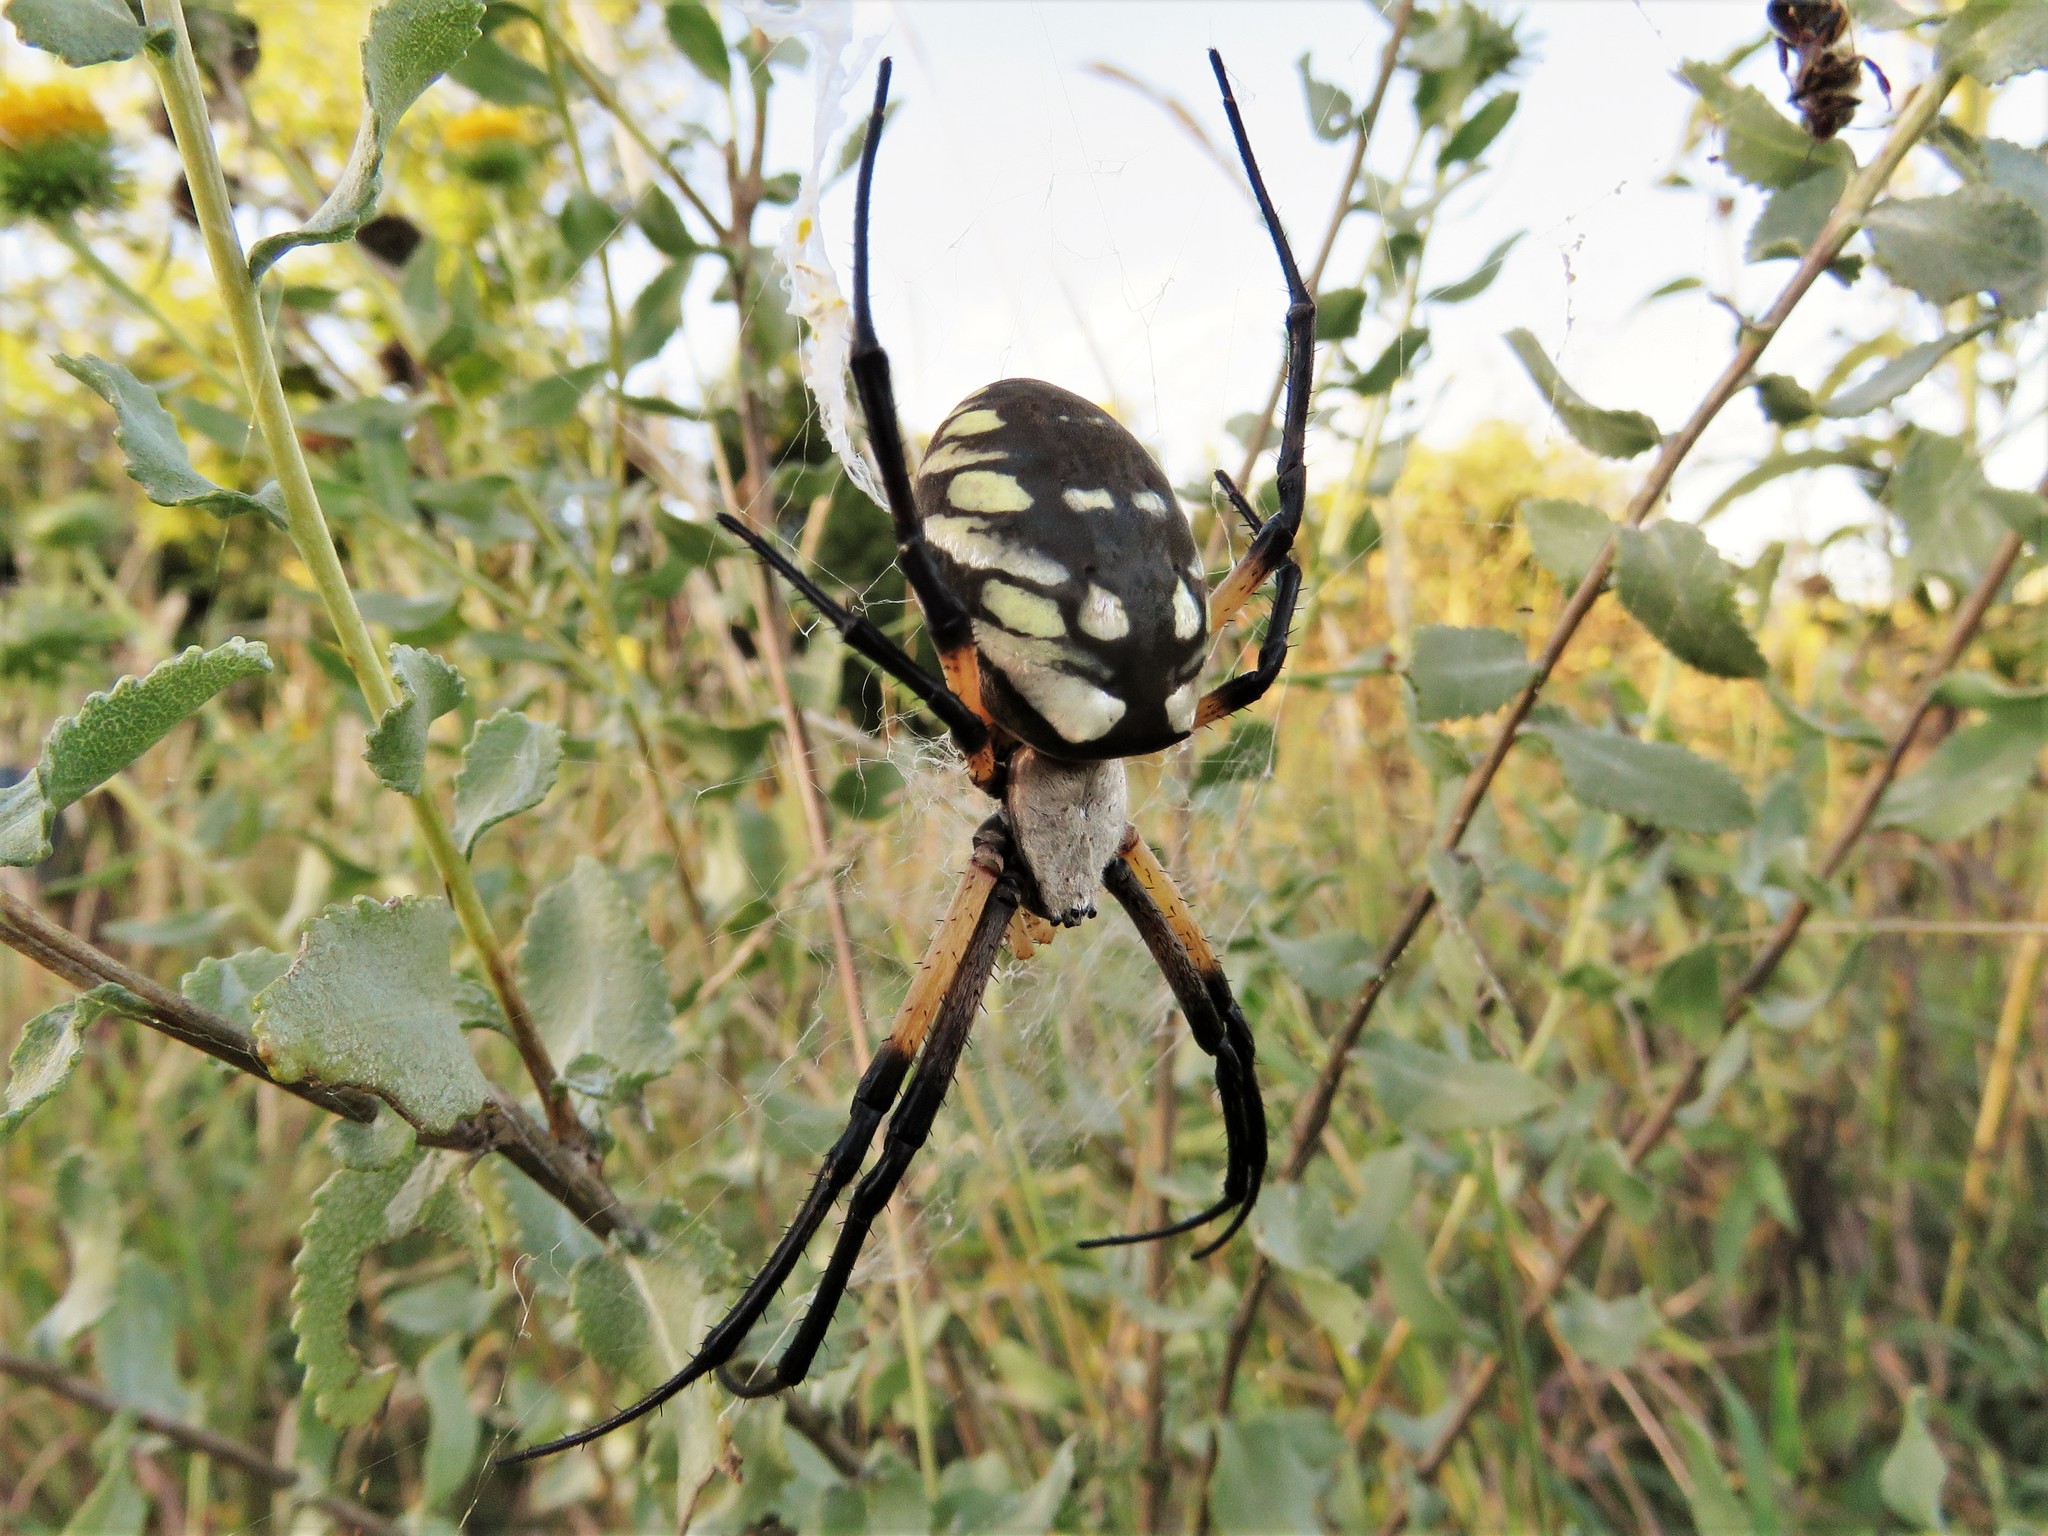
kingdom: Animalia
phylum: Arthropoda
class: Arachnida
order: Araneae
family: Araneidae
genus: Argiope
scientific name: Argiope aurantia
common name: Orb weavers
